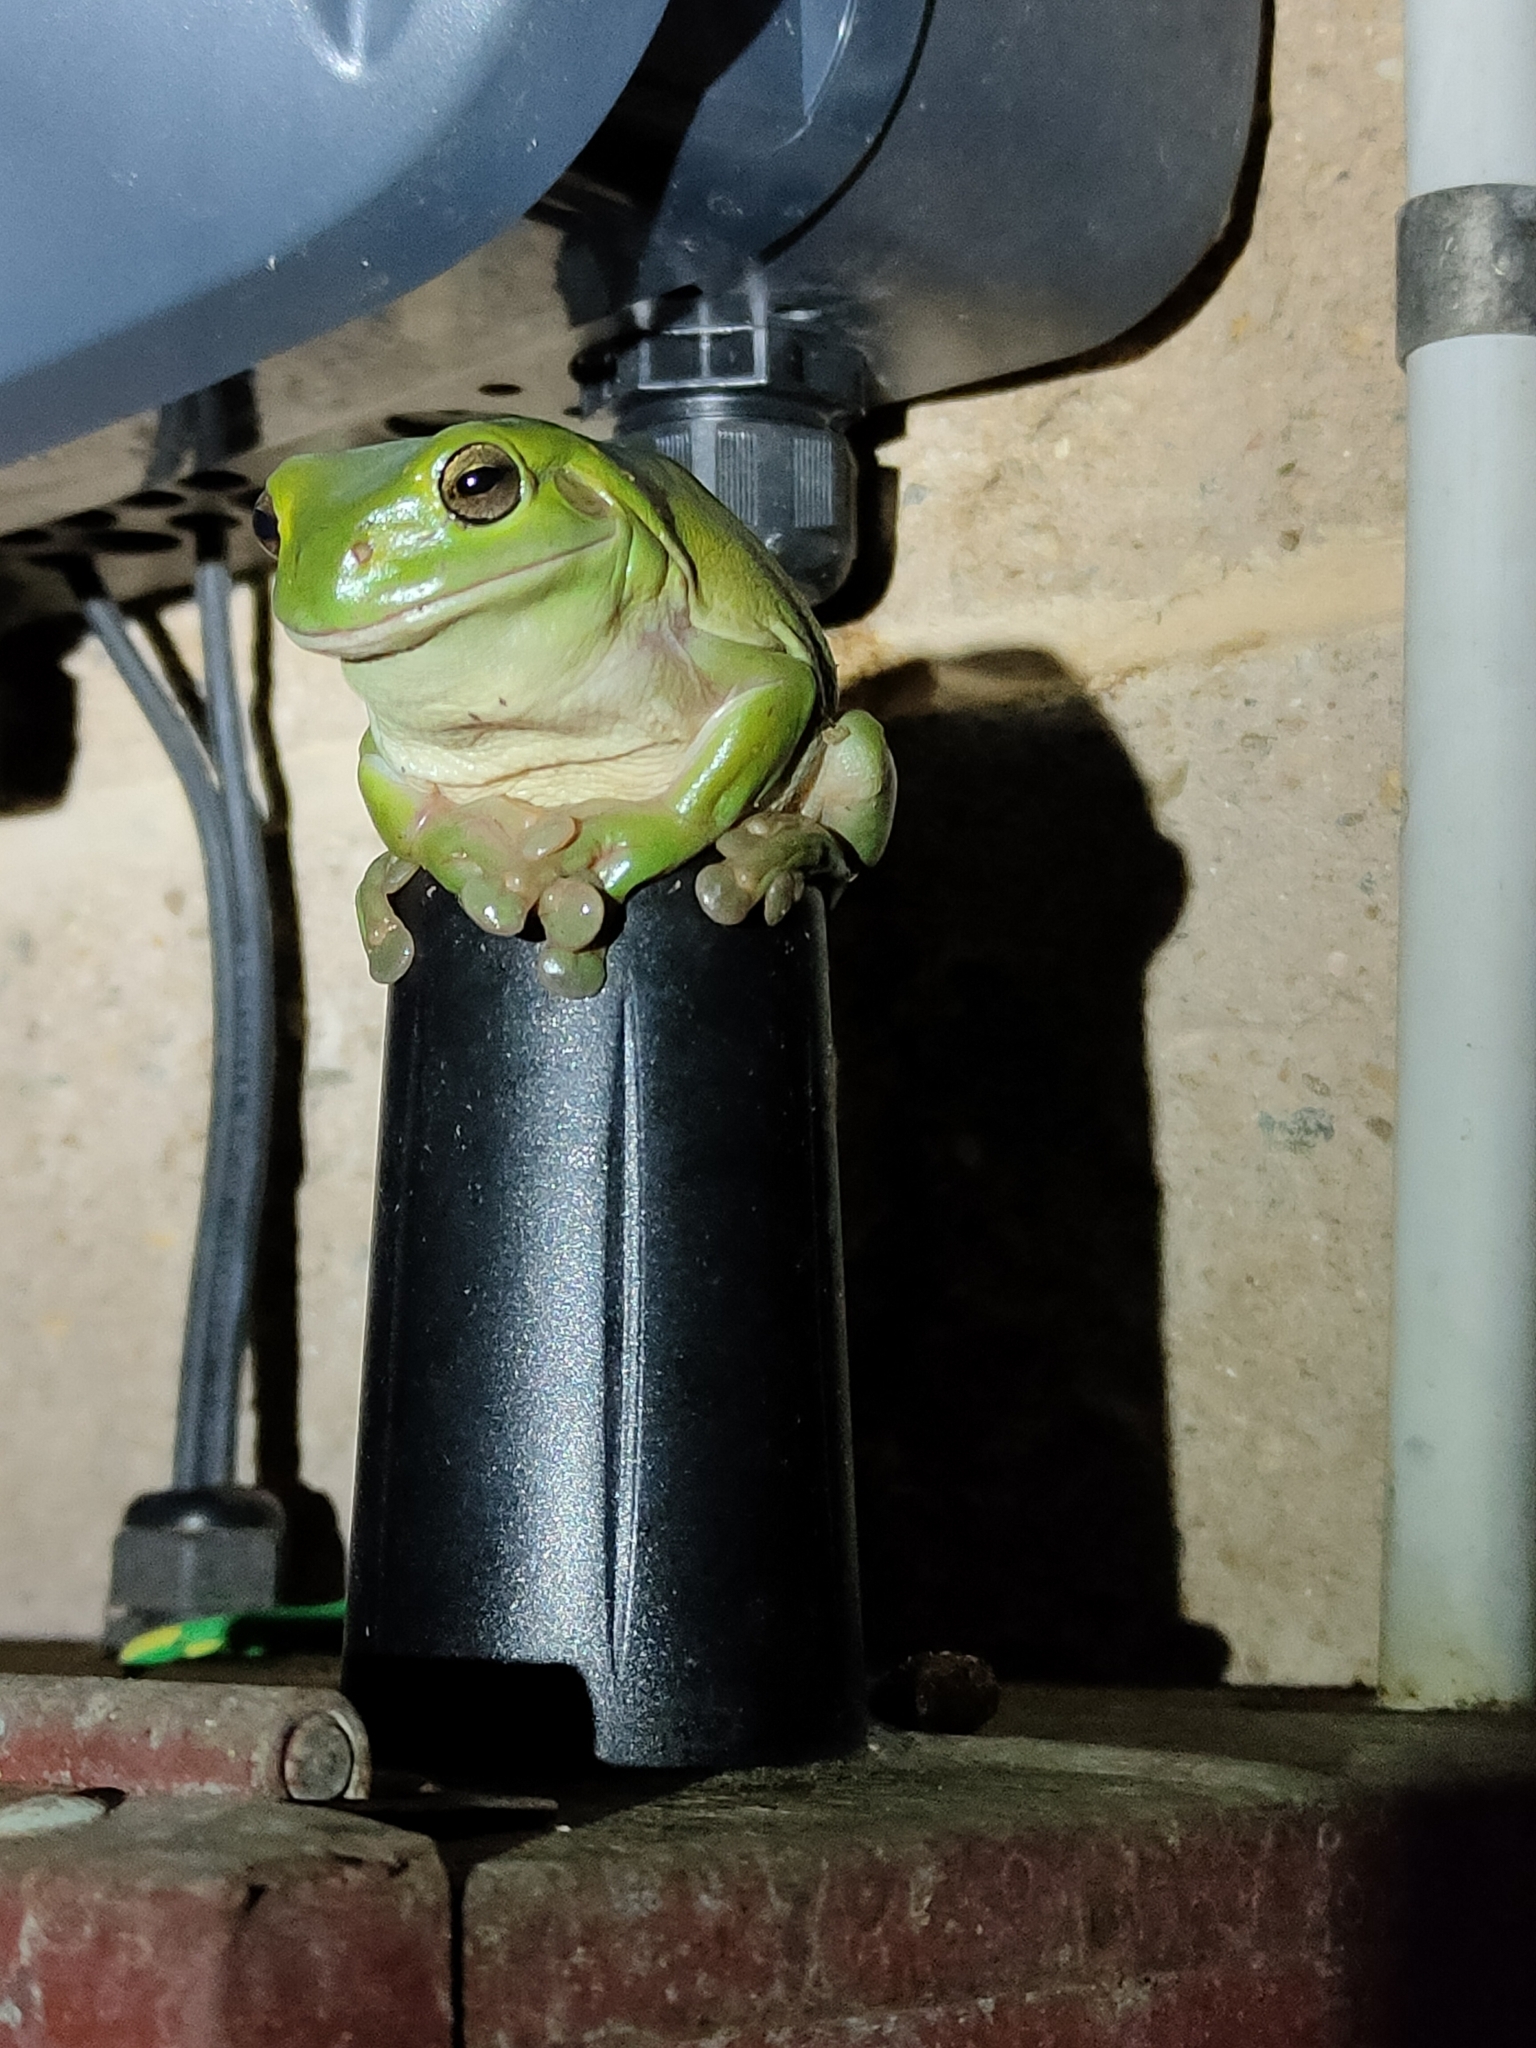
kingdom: Animalia
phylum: Chordata
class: Amphibia
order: Anura
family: Pelodryadidae
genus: Ranoidea
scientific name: Ranoidea caerulea
